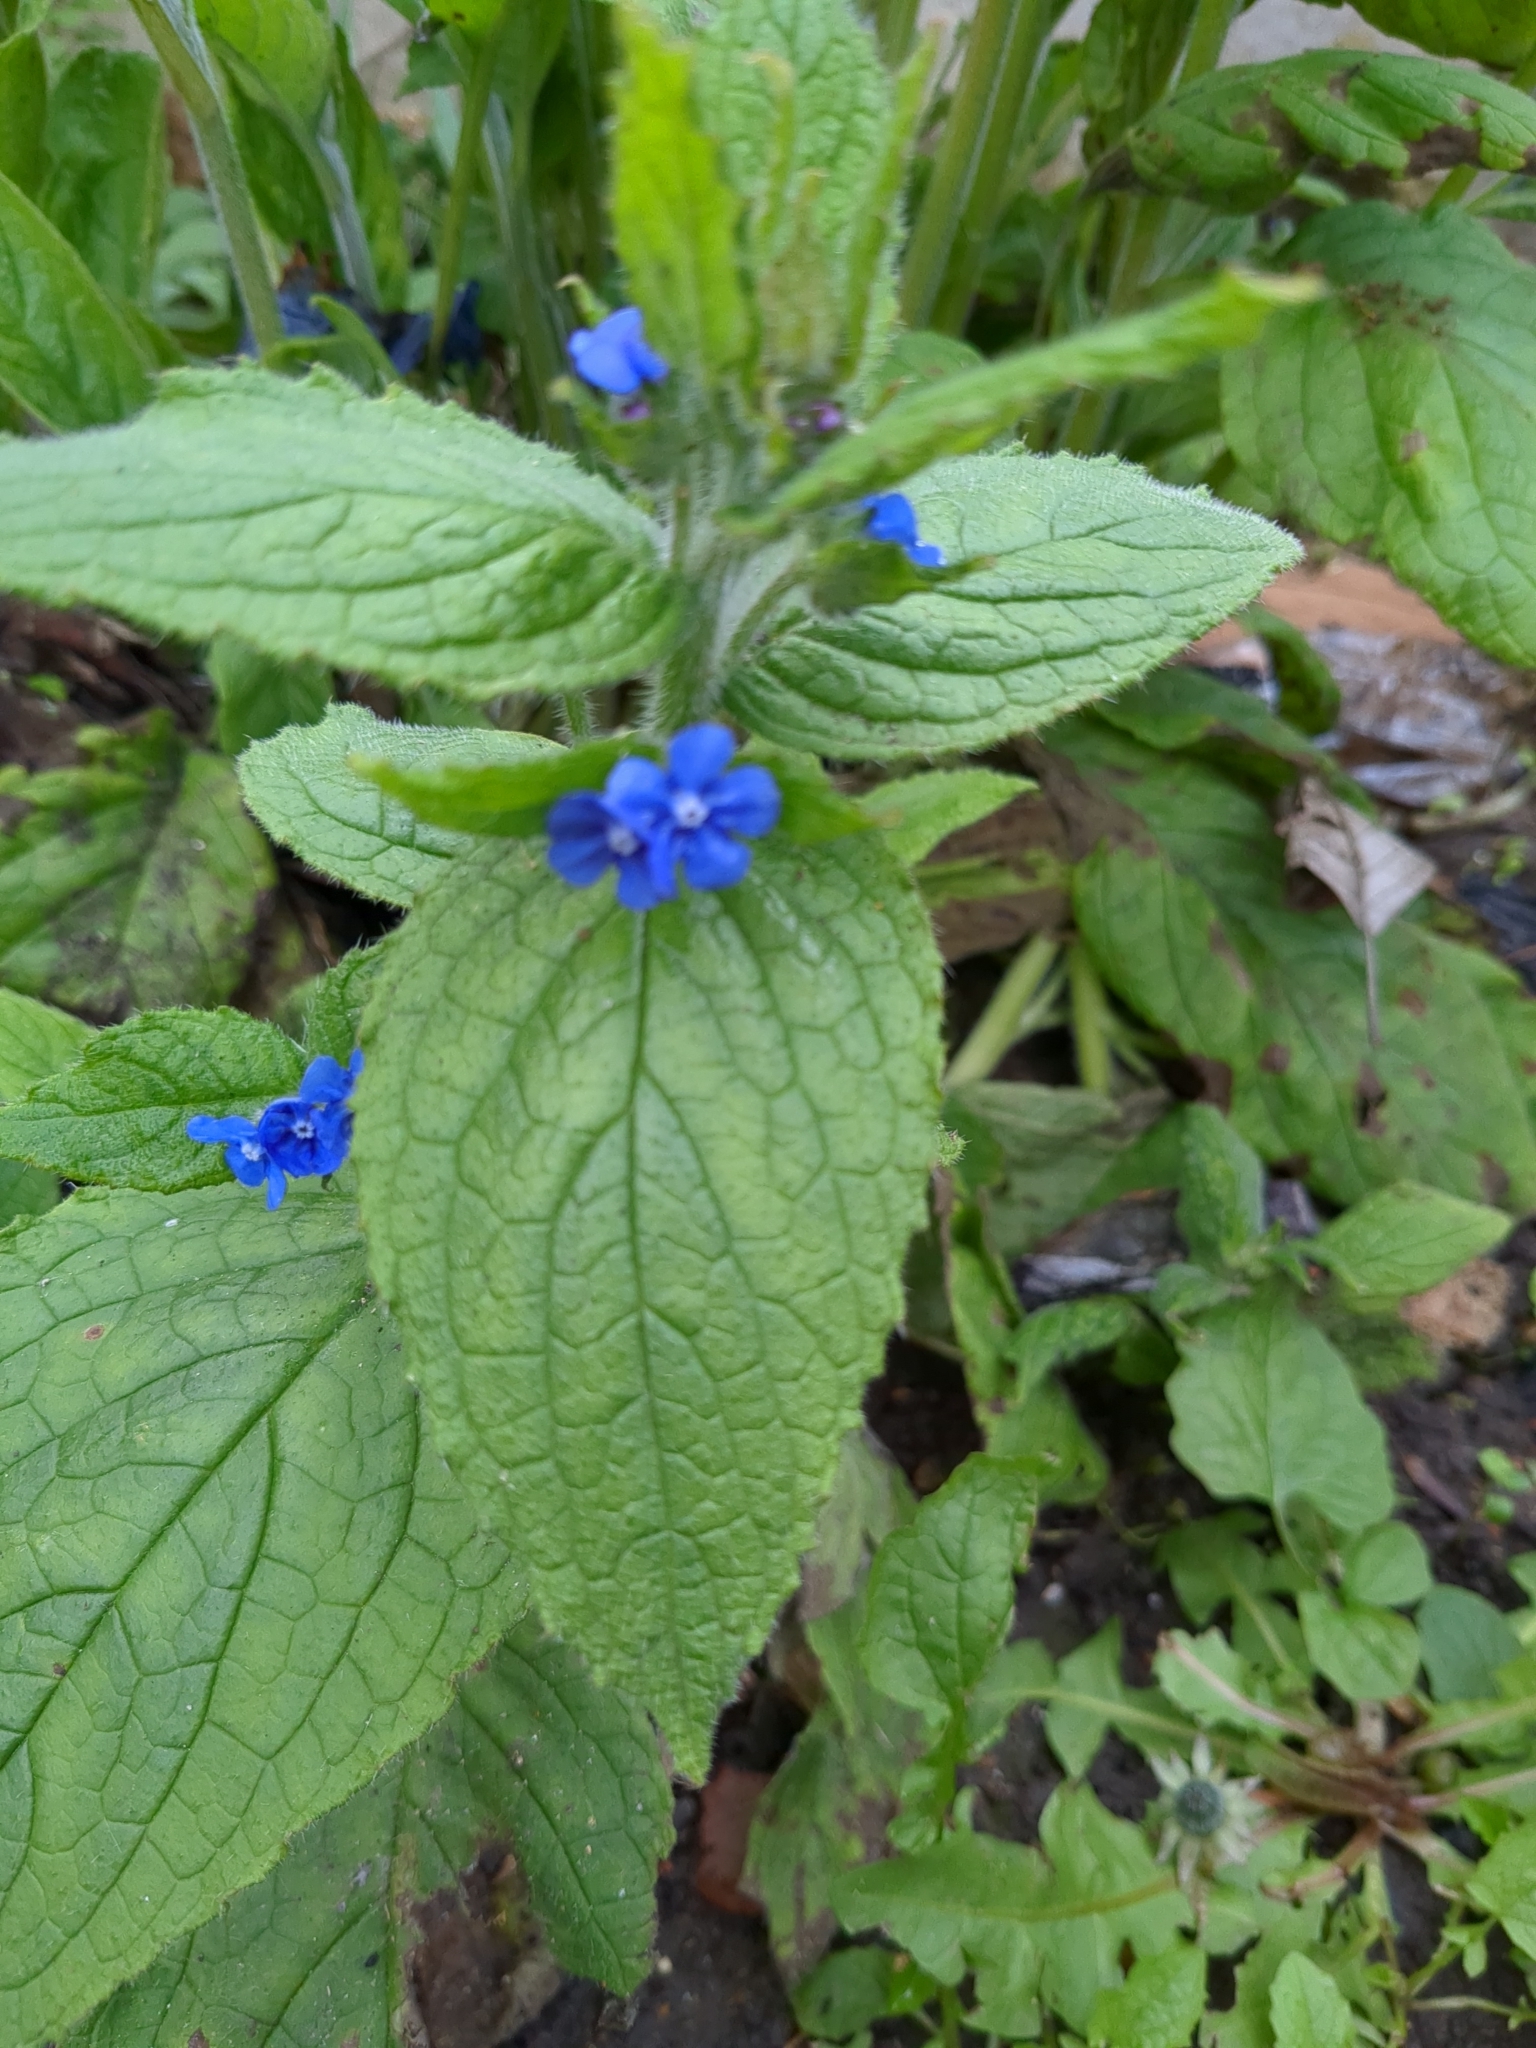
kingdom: Plantae
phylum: Tracheophyta
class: Magnoliopsida
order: Boraginales
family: Boraginaceae
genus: Pentaglottis
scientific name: Pentaglottis sempervirens
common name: Green alkanet
